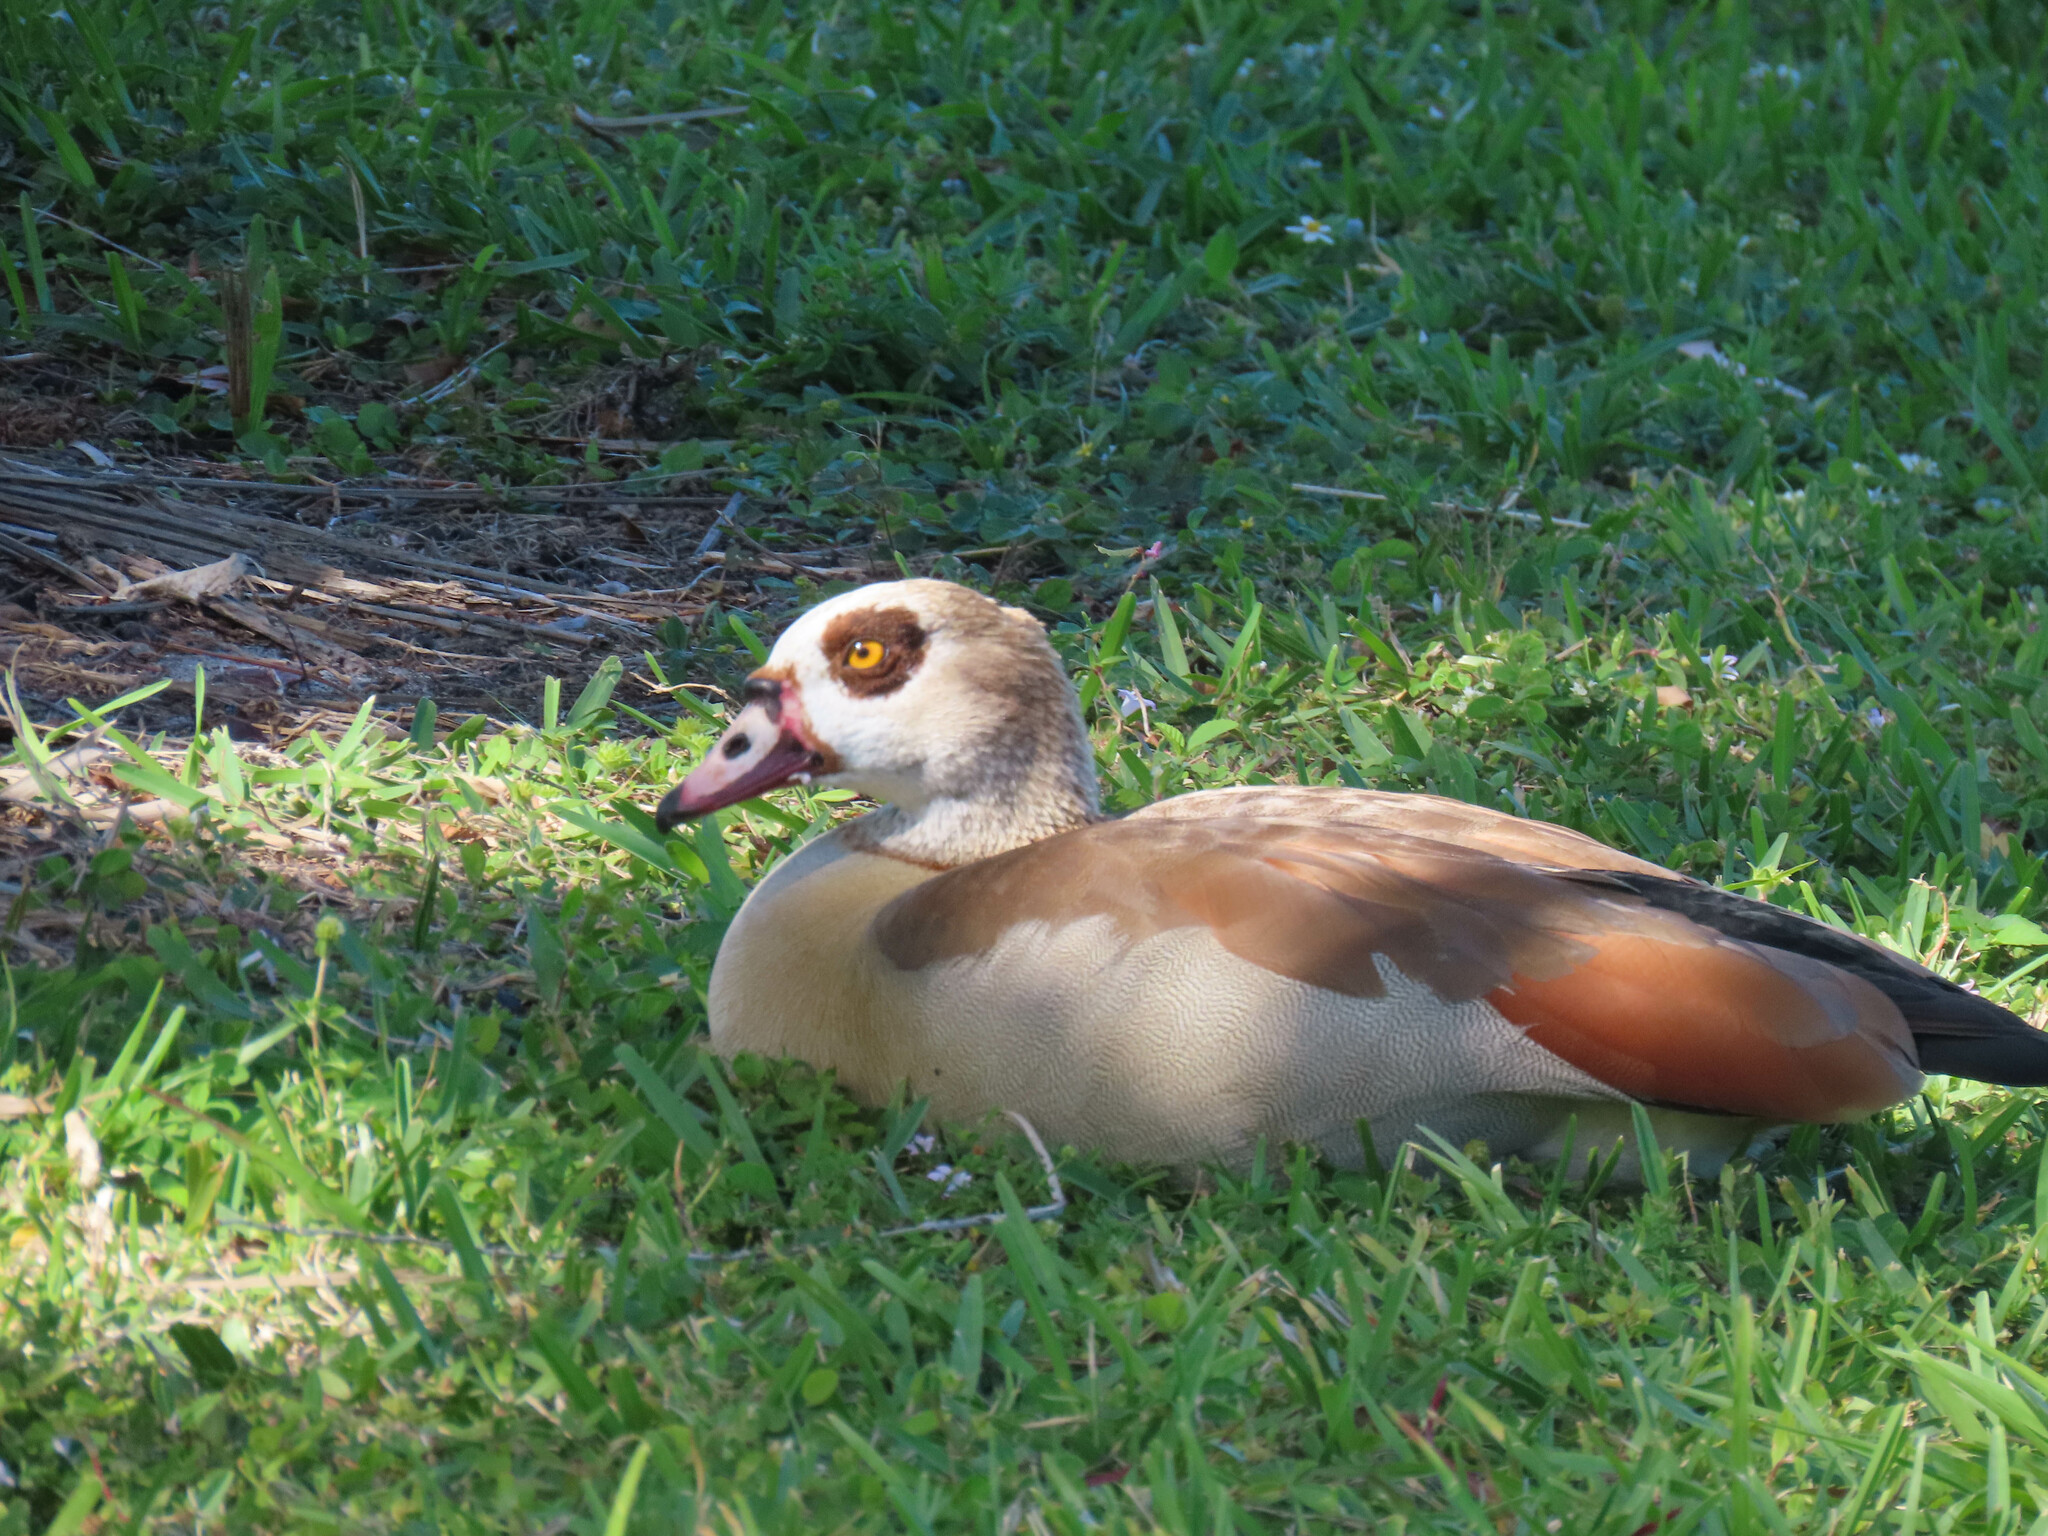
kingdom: Animalia
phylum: Chordata
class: Aves
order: Anseriformes
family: Anatidae
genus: Alopochen
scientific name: Alopochen aegyptiaca
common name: Egyptian goose
